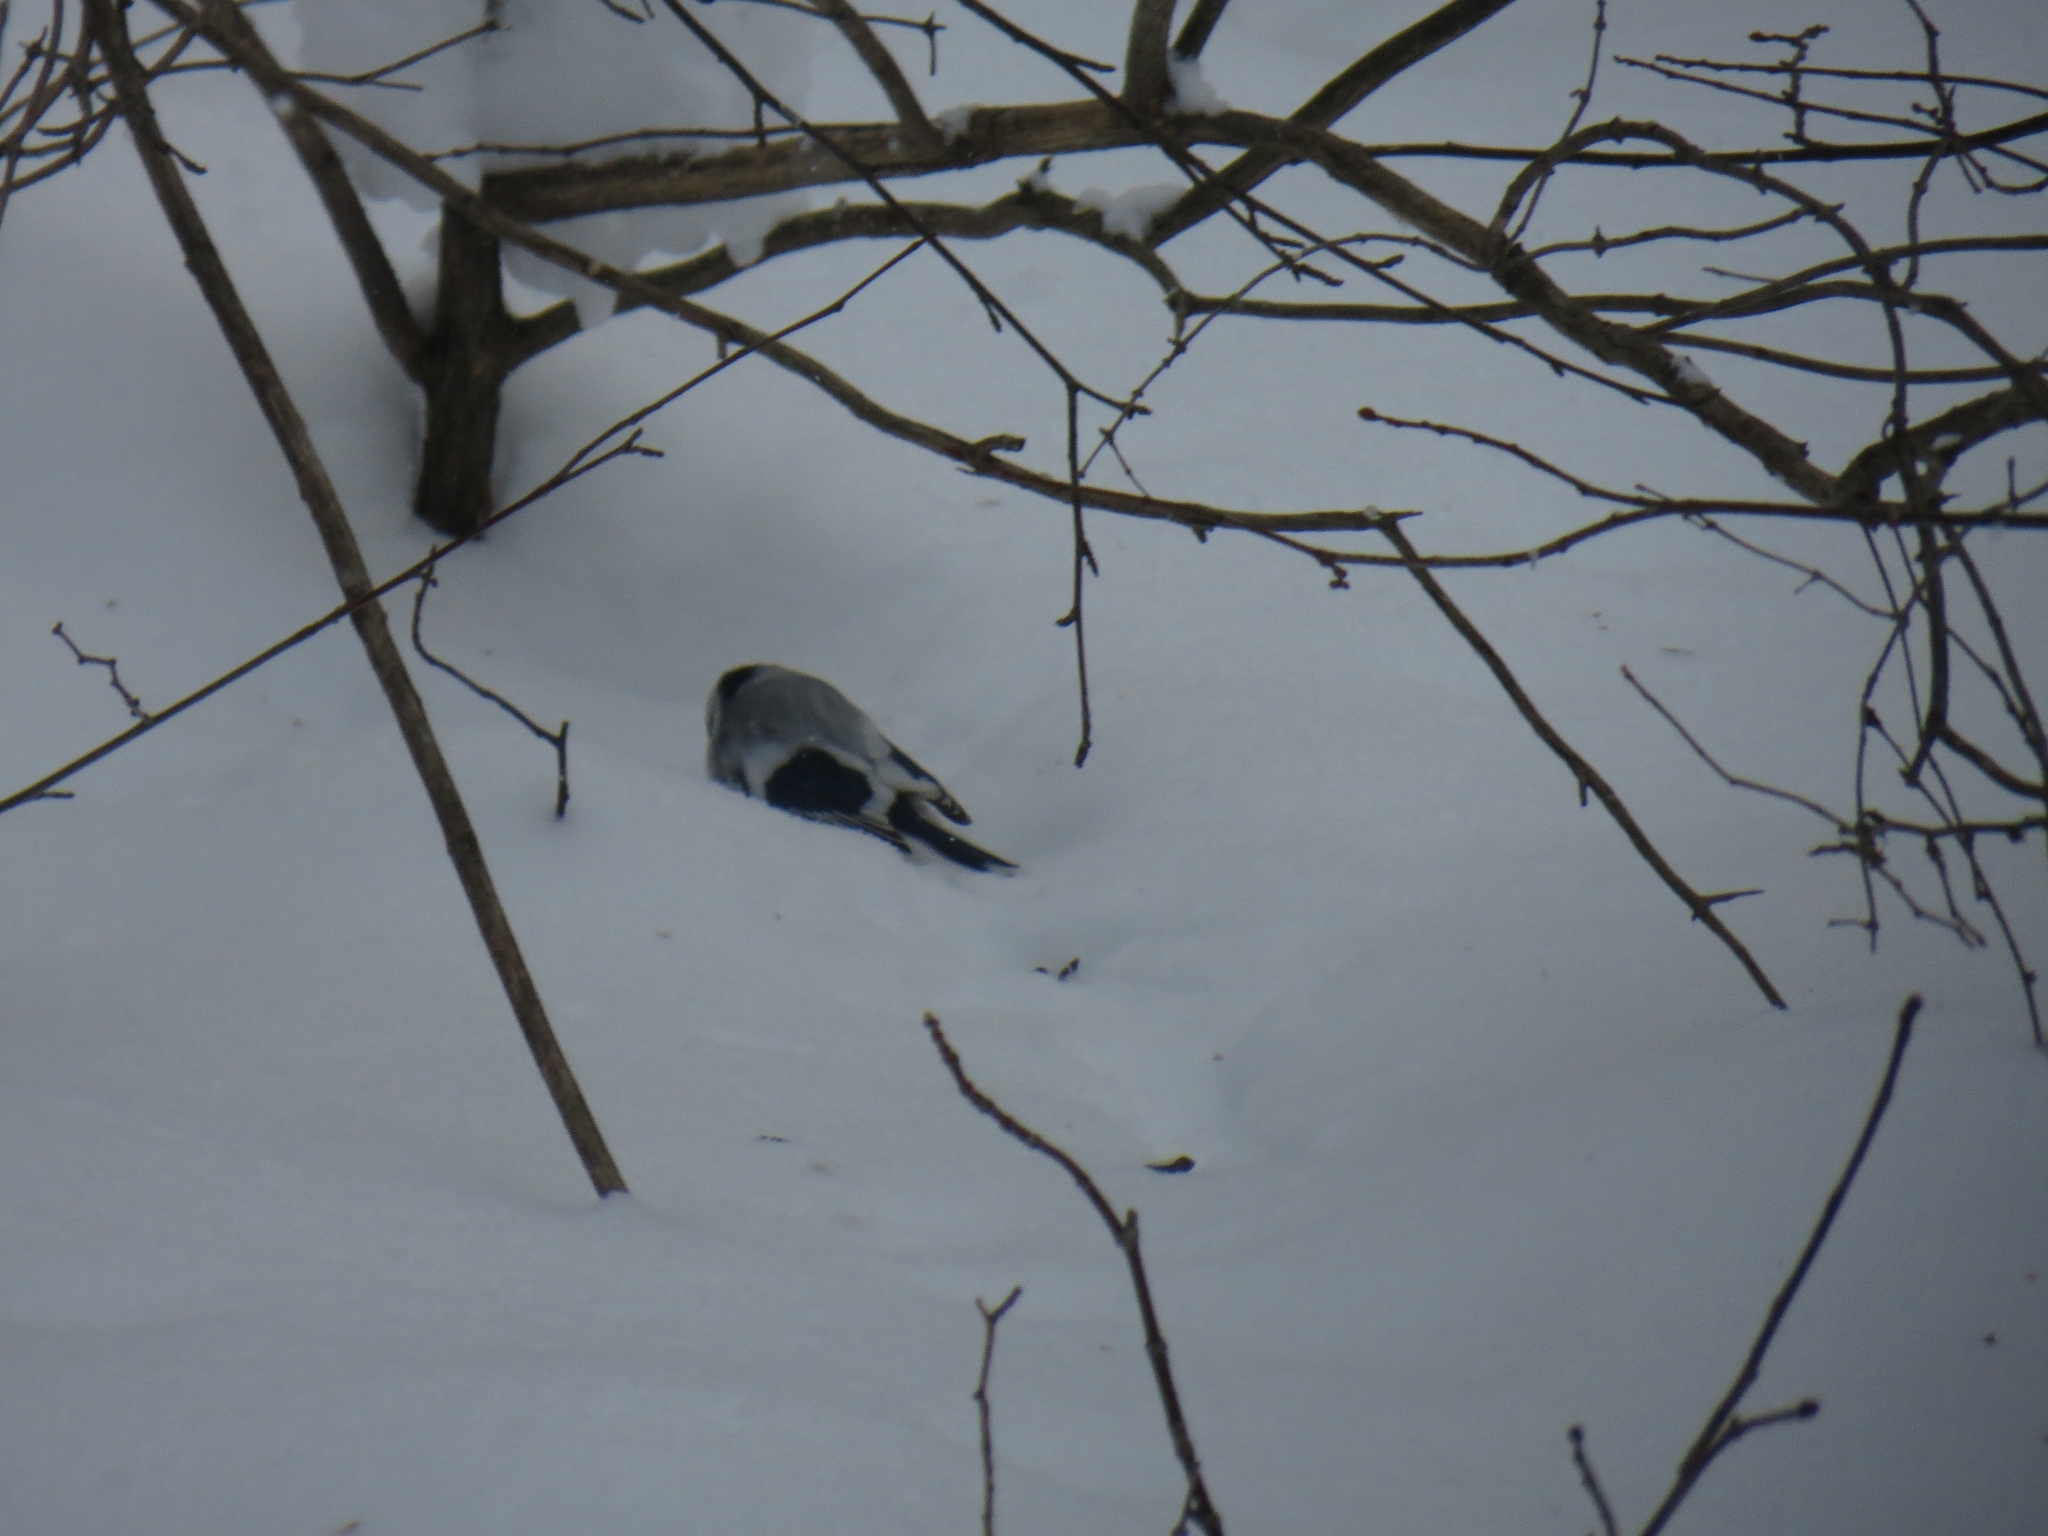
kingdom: Animalia
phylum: Chordata
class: Aves
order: Passeriformes
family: Paridae
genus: Cyanistes
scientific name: Cyanistes cyanus
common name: Azure tit
